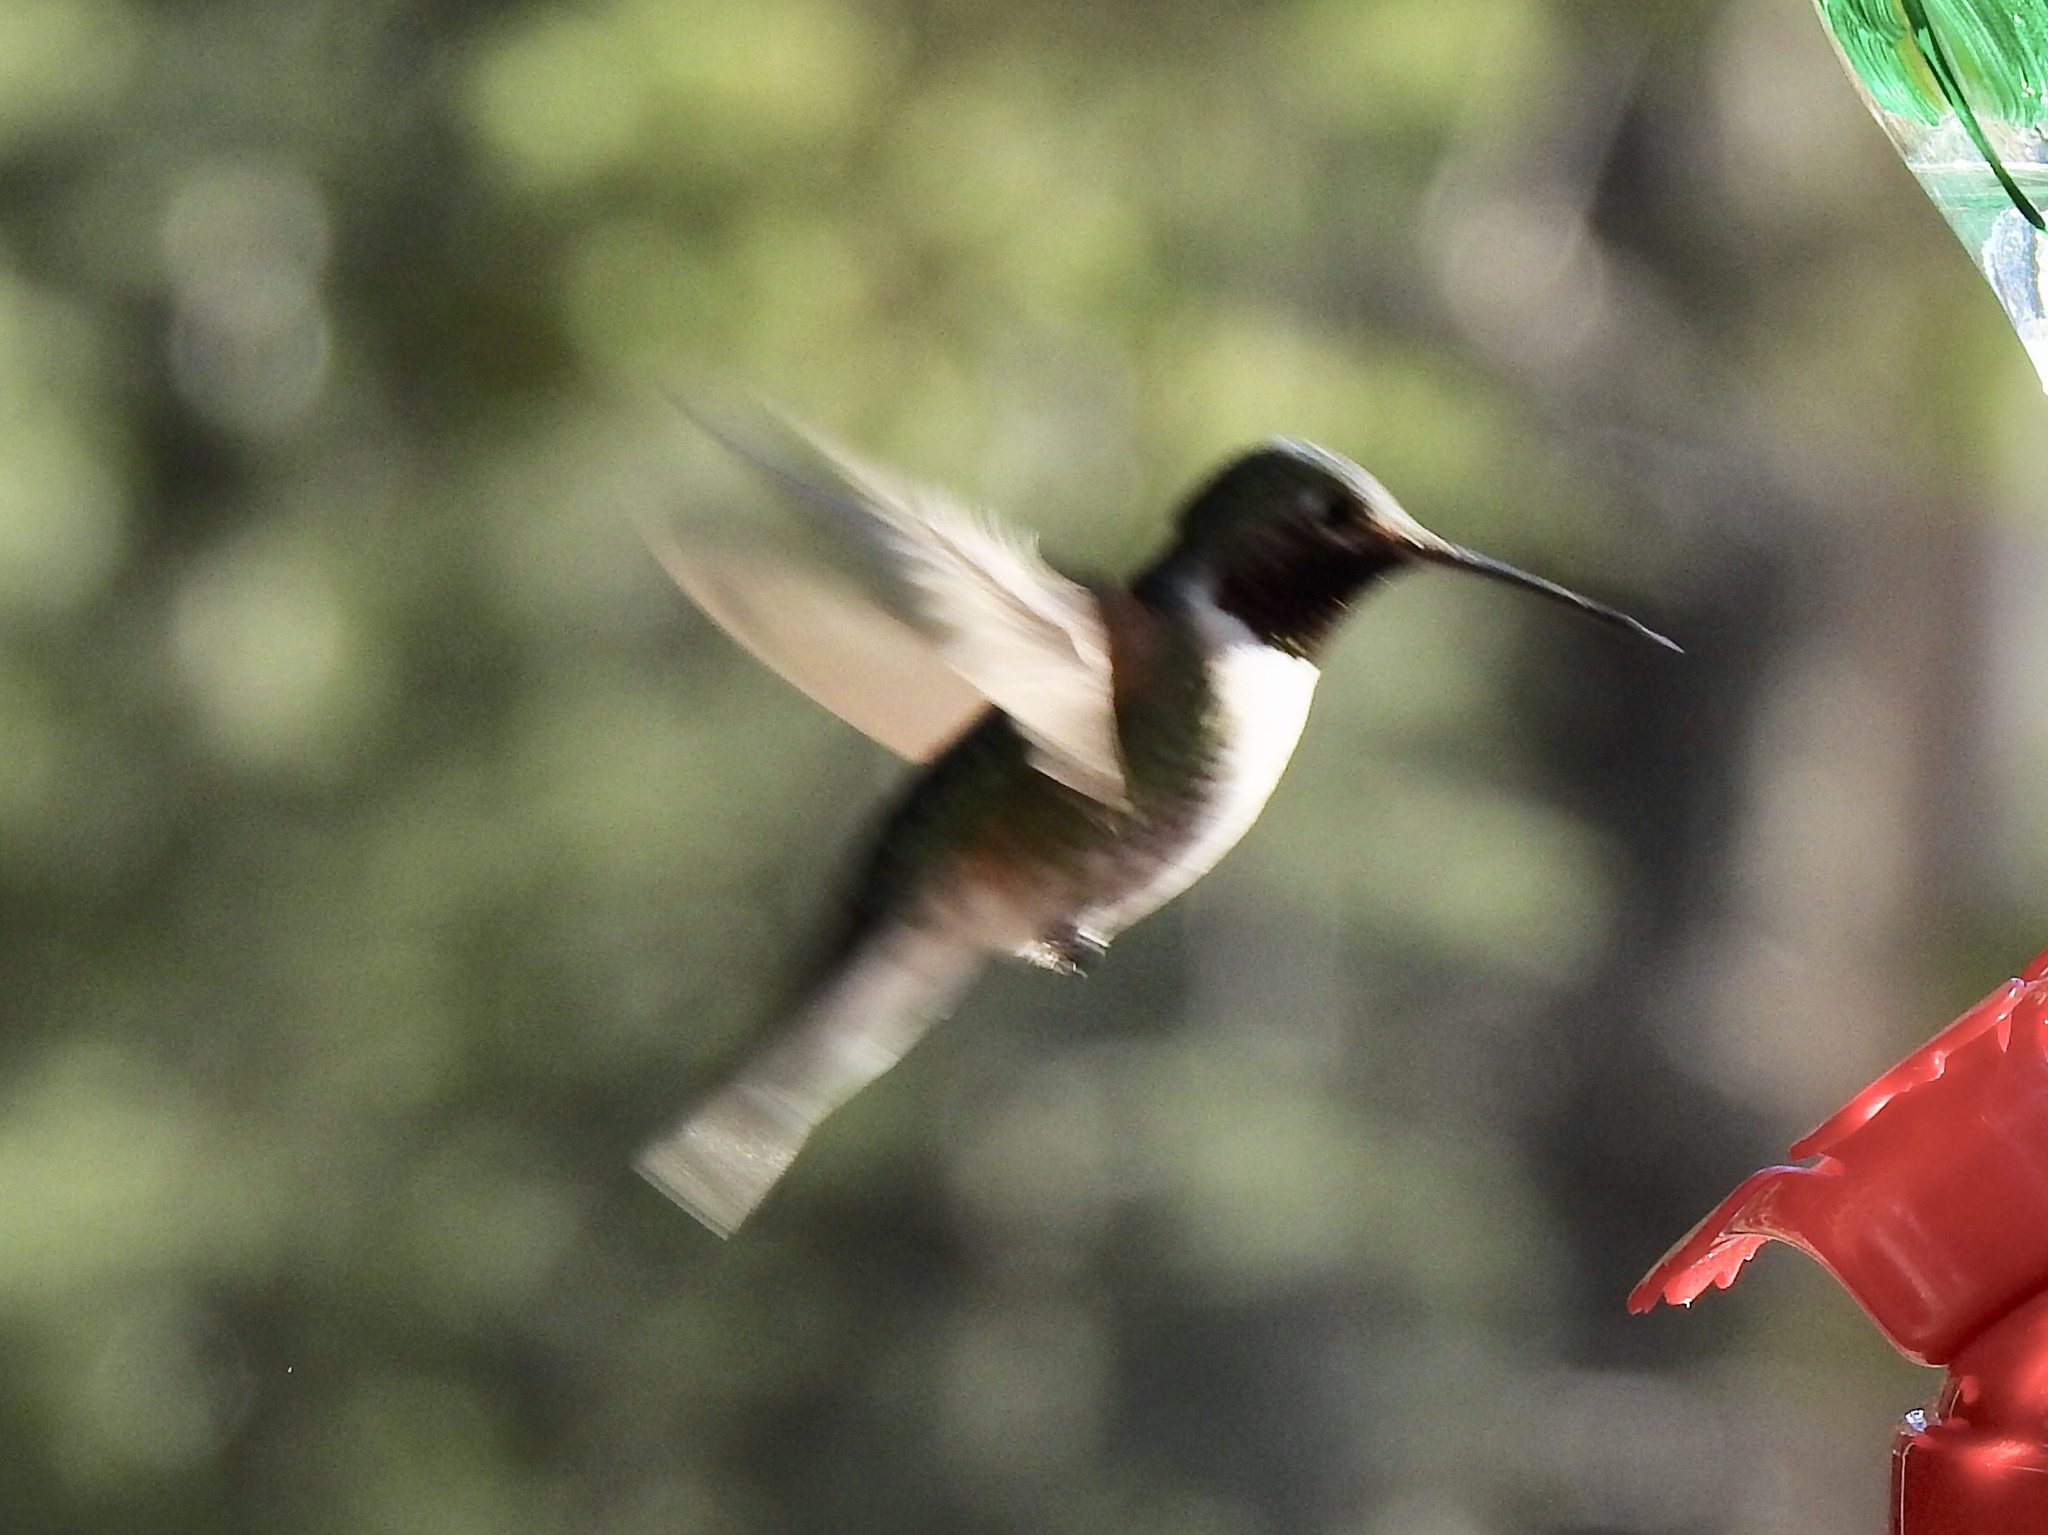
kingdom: Animalia
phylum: Chordata
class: Aves
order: Apodiformes
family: Trochilidae
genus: Selasphorus
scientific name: Selasphorus platycercus
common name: Broad-tailed hummingbird
